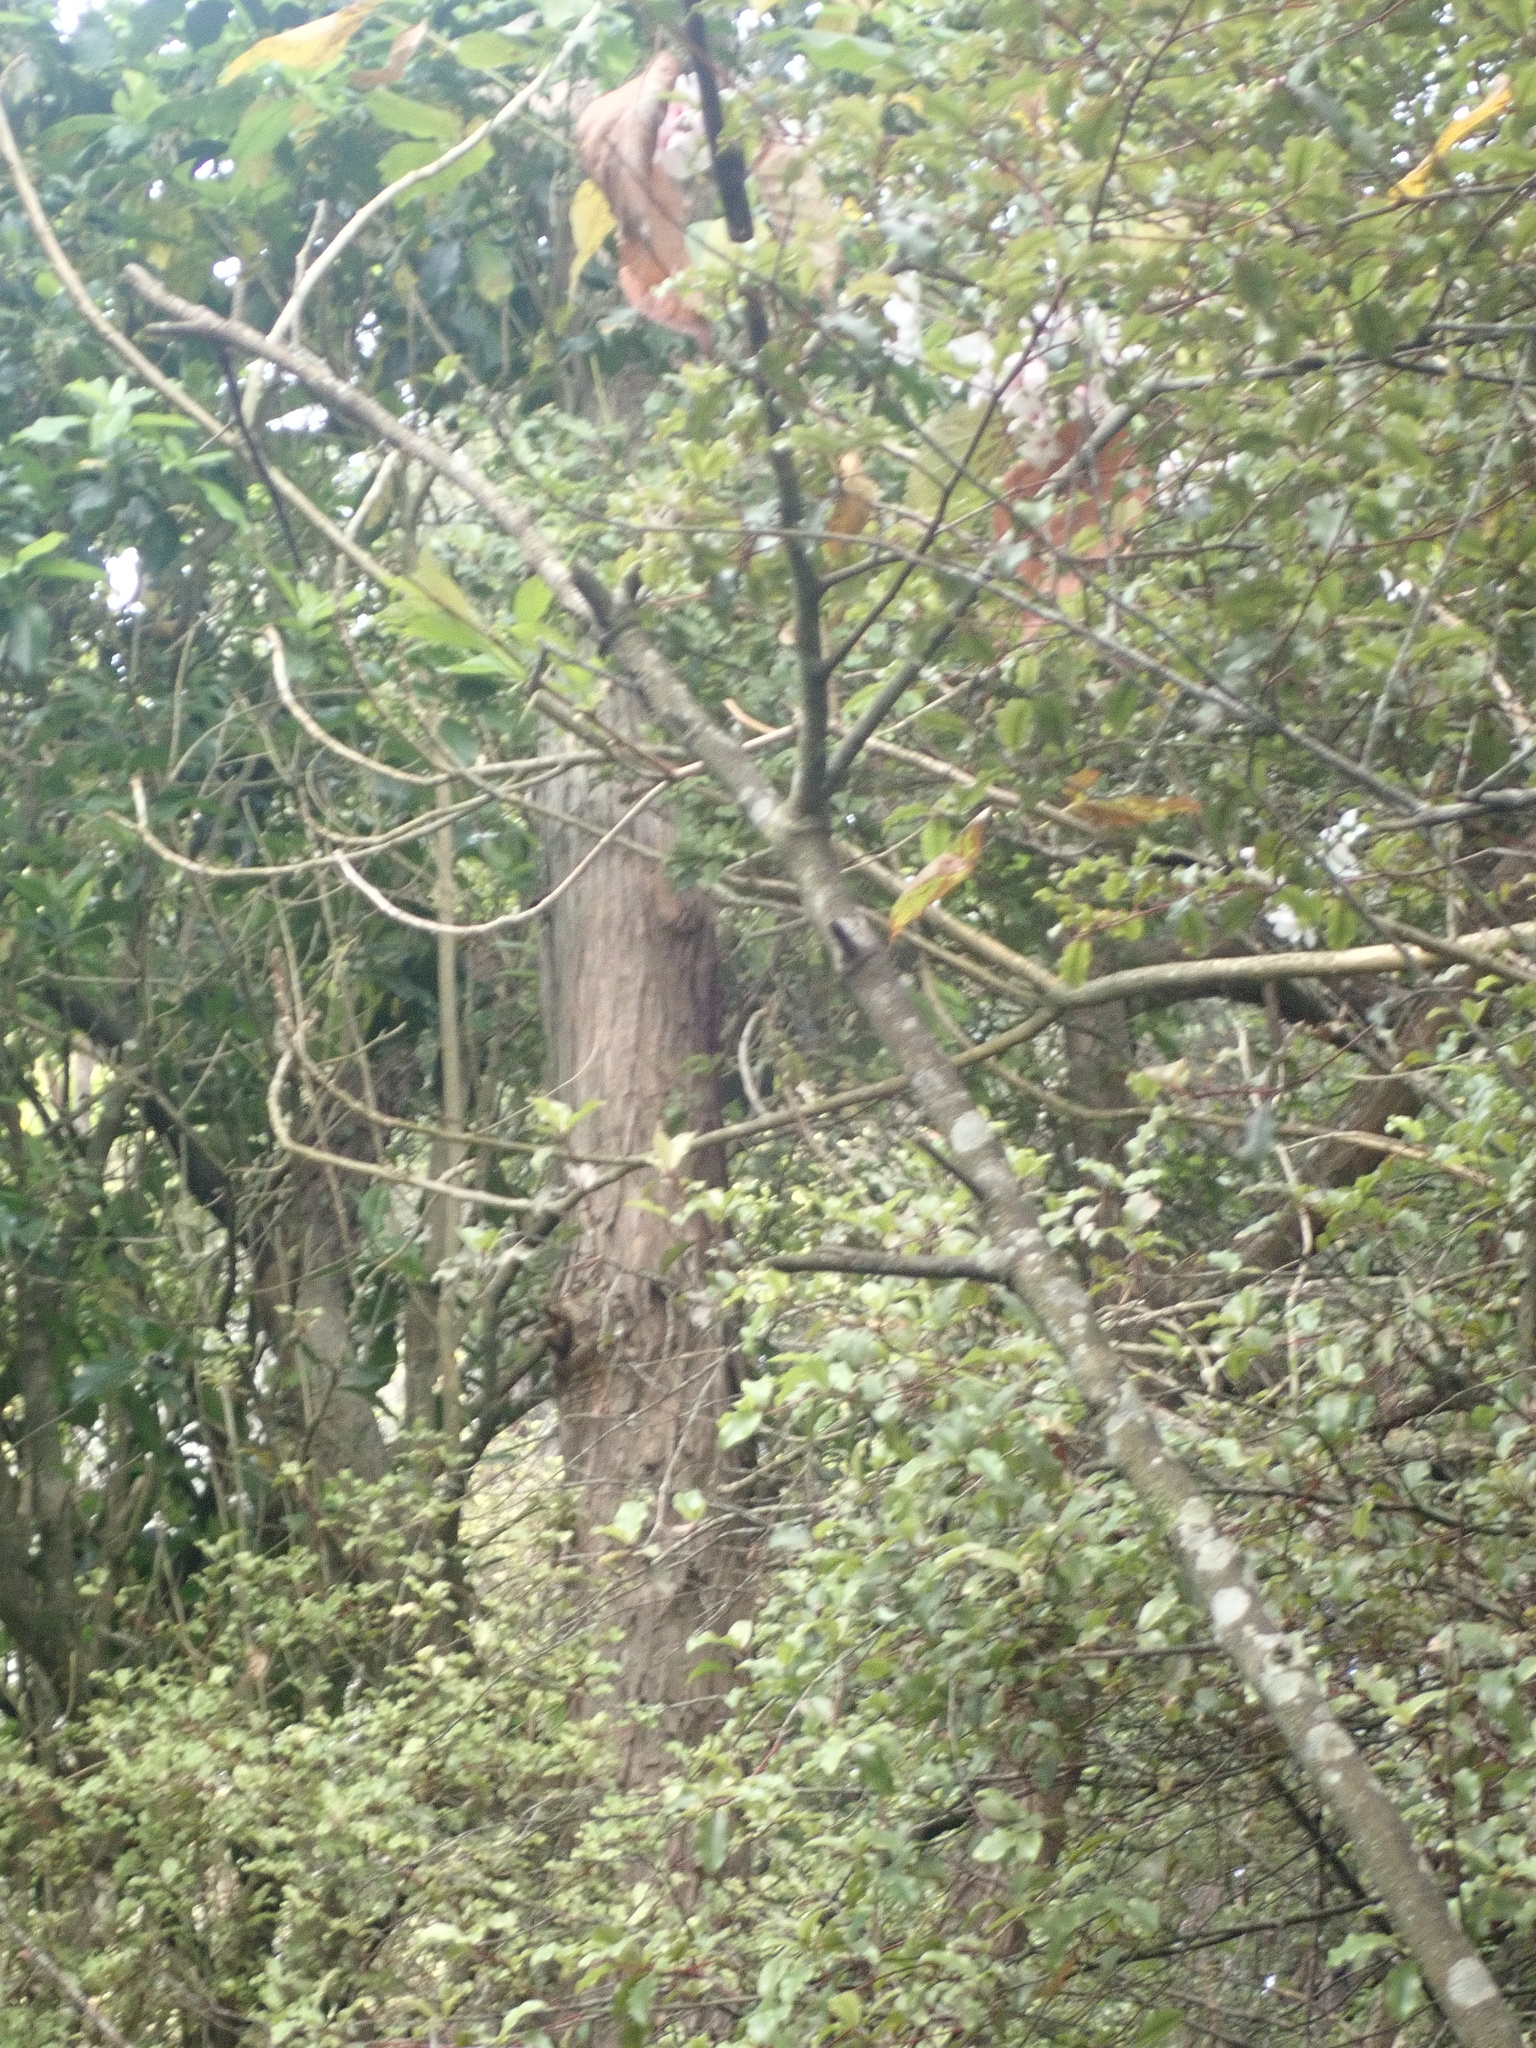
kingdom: Plantae
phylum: Tracheophyta
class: Magnoliopsida
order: Ericales
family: Primulaceae
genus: Myrsine
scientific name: Myrsine australis
